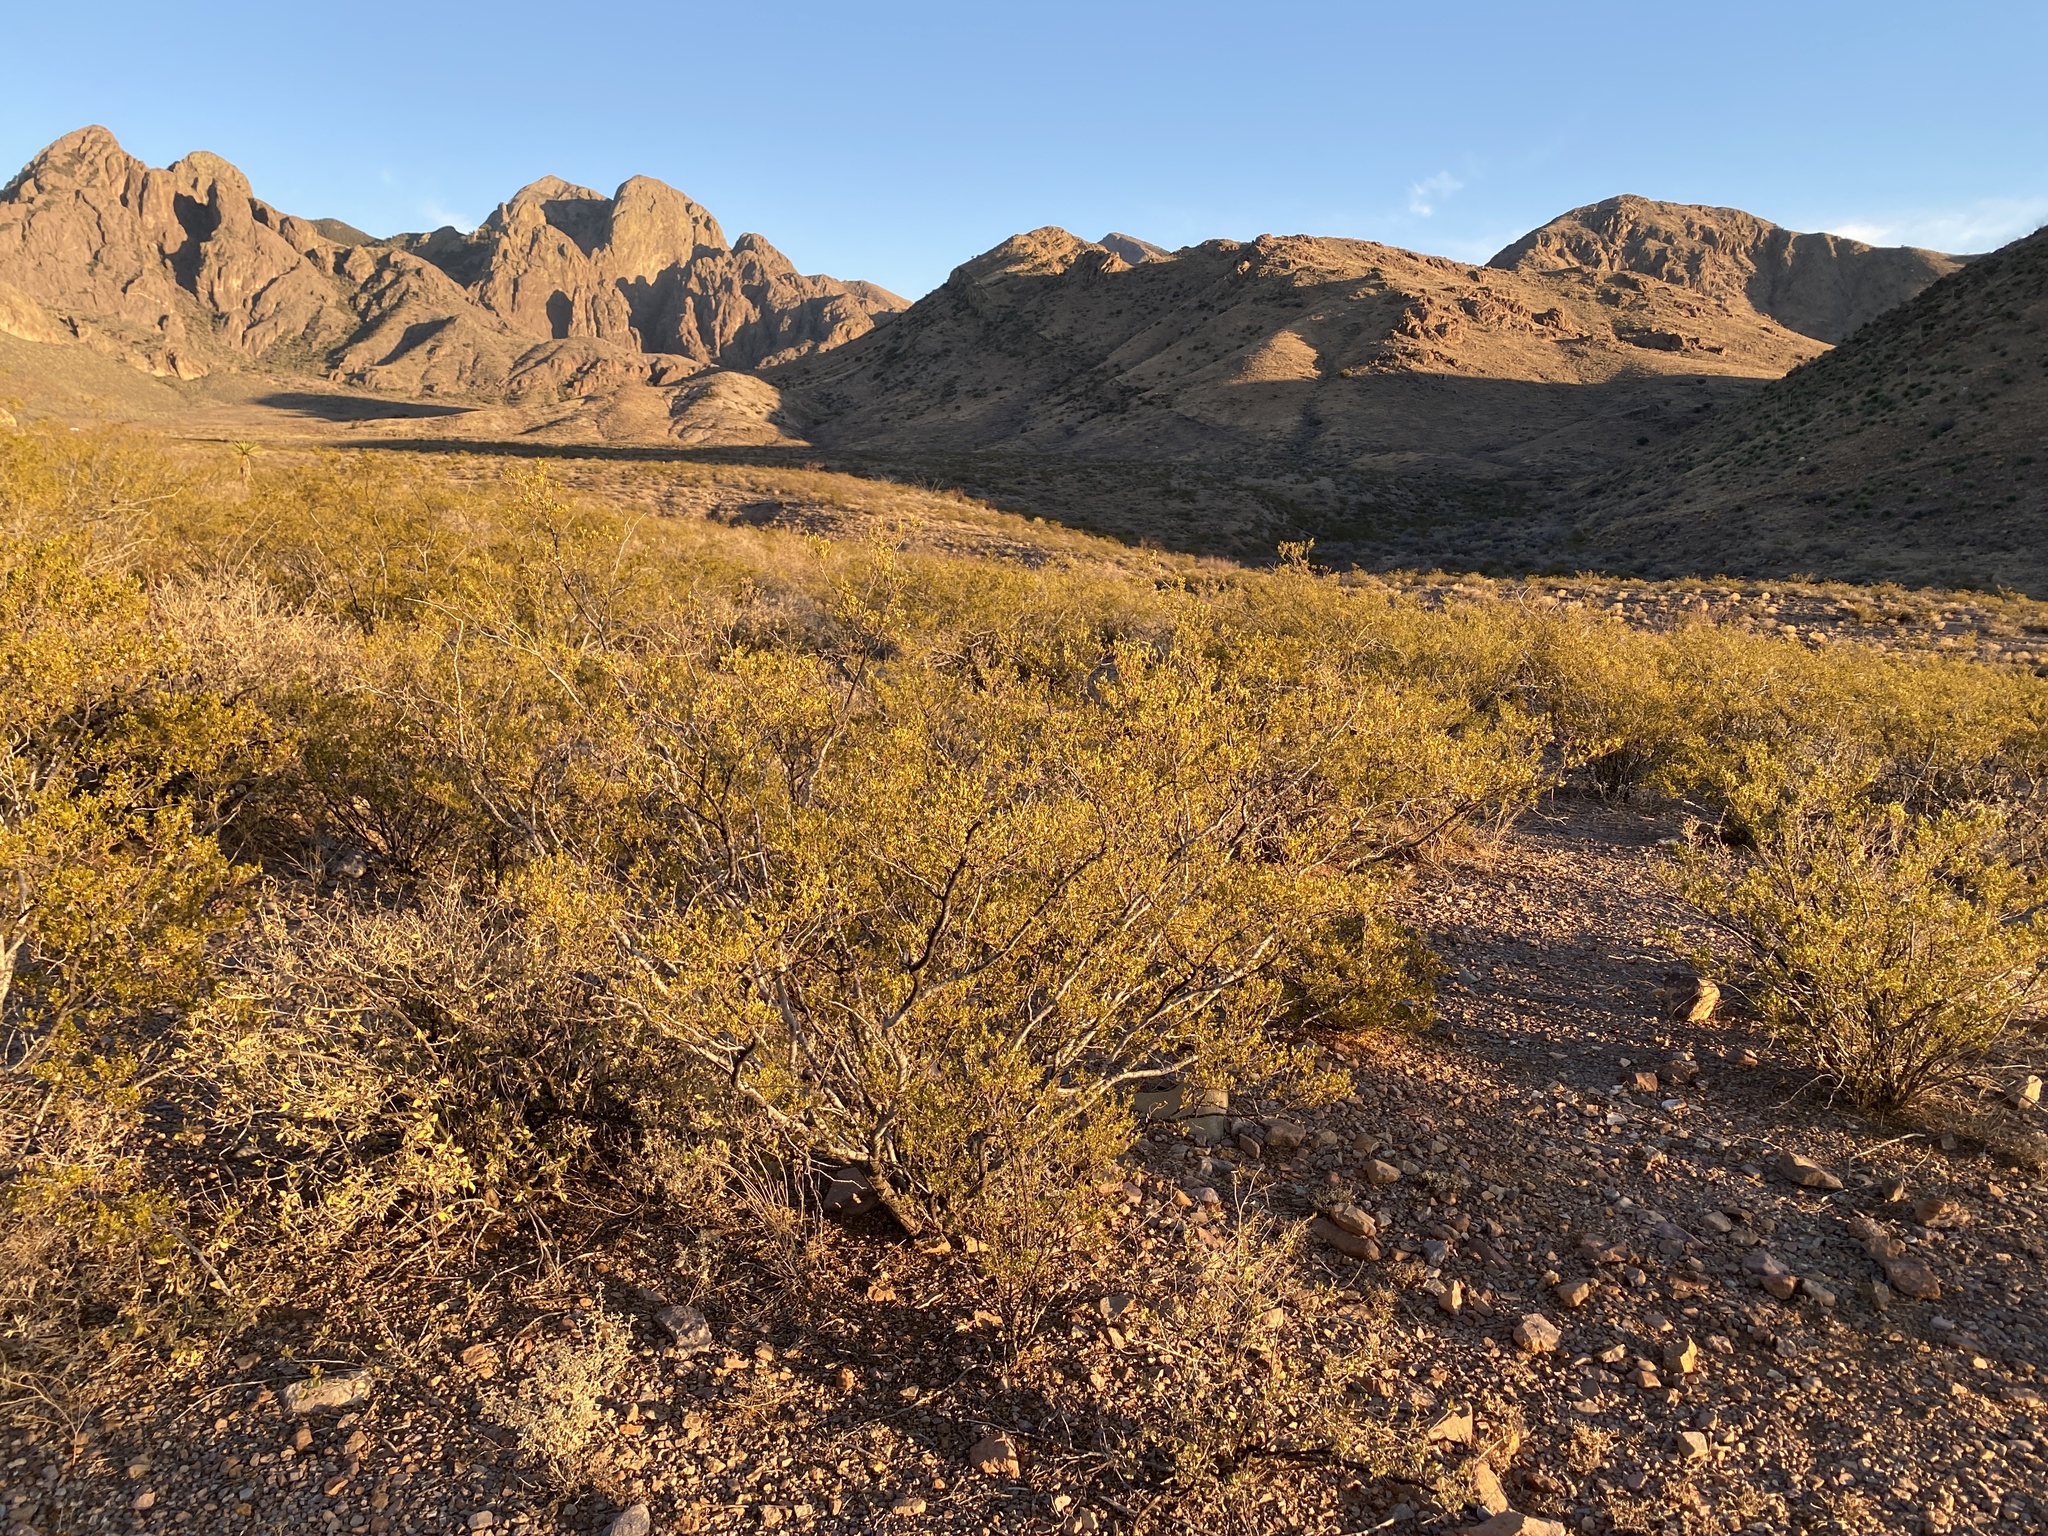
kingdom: Plantae
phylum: Tracheophyta
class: Magnoliopsida
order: Zygophyllales
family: Zygophyllaceae
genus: Larrea
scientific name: Larrea tridentata
